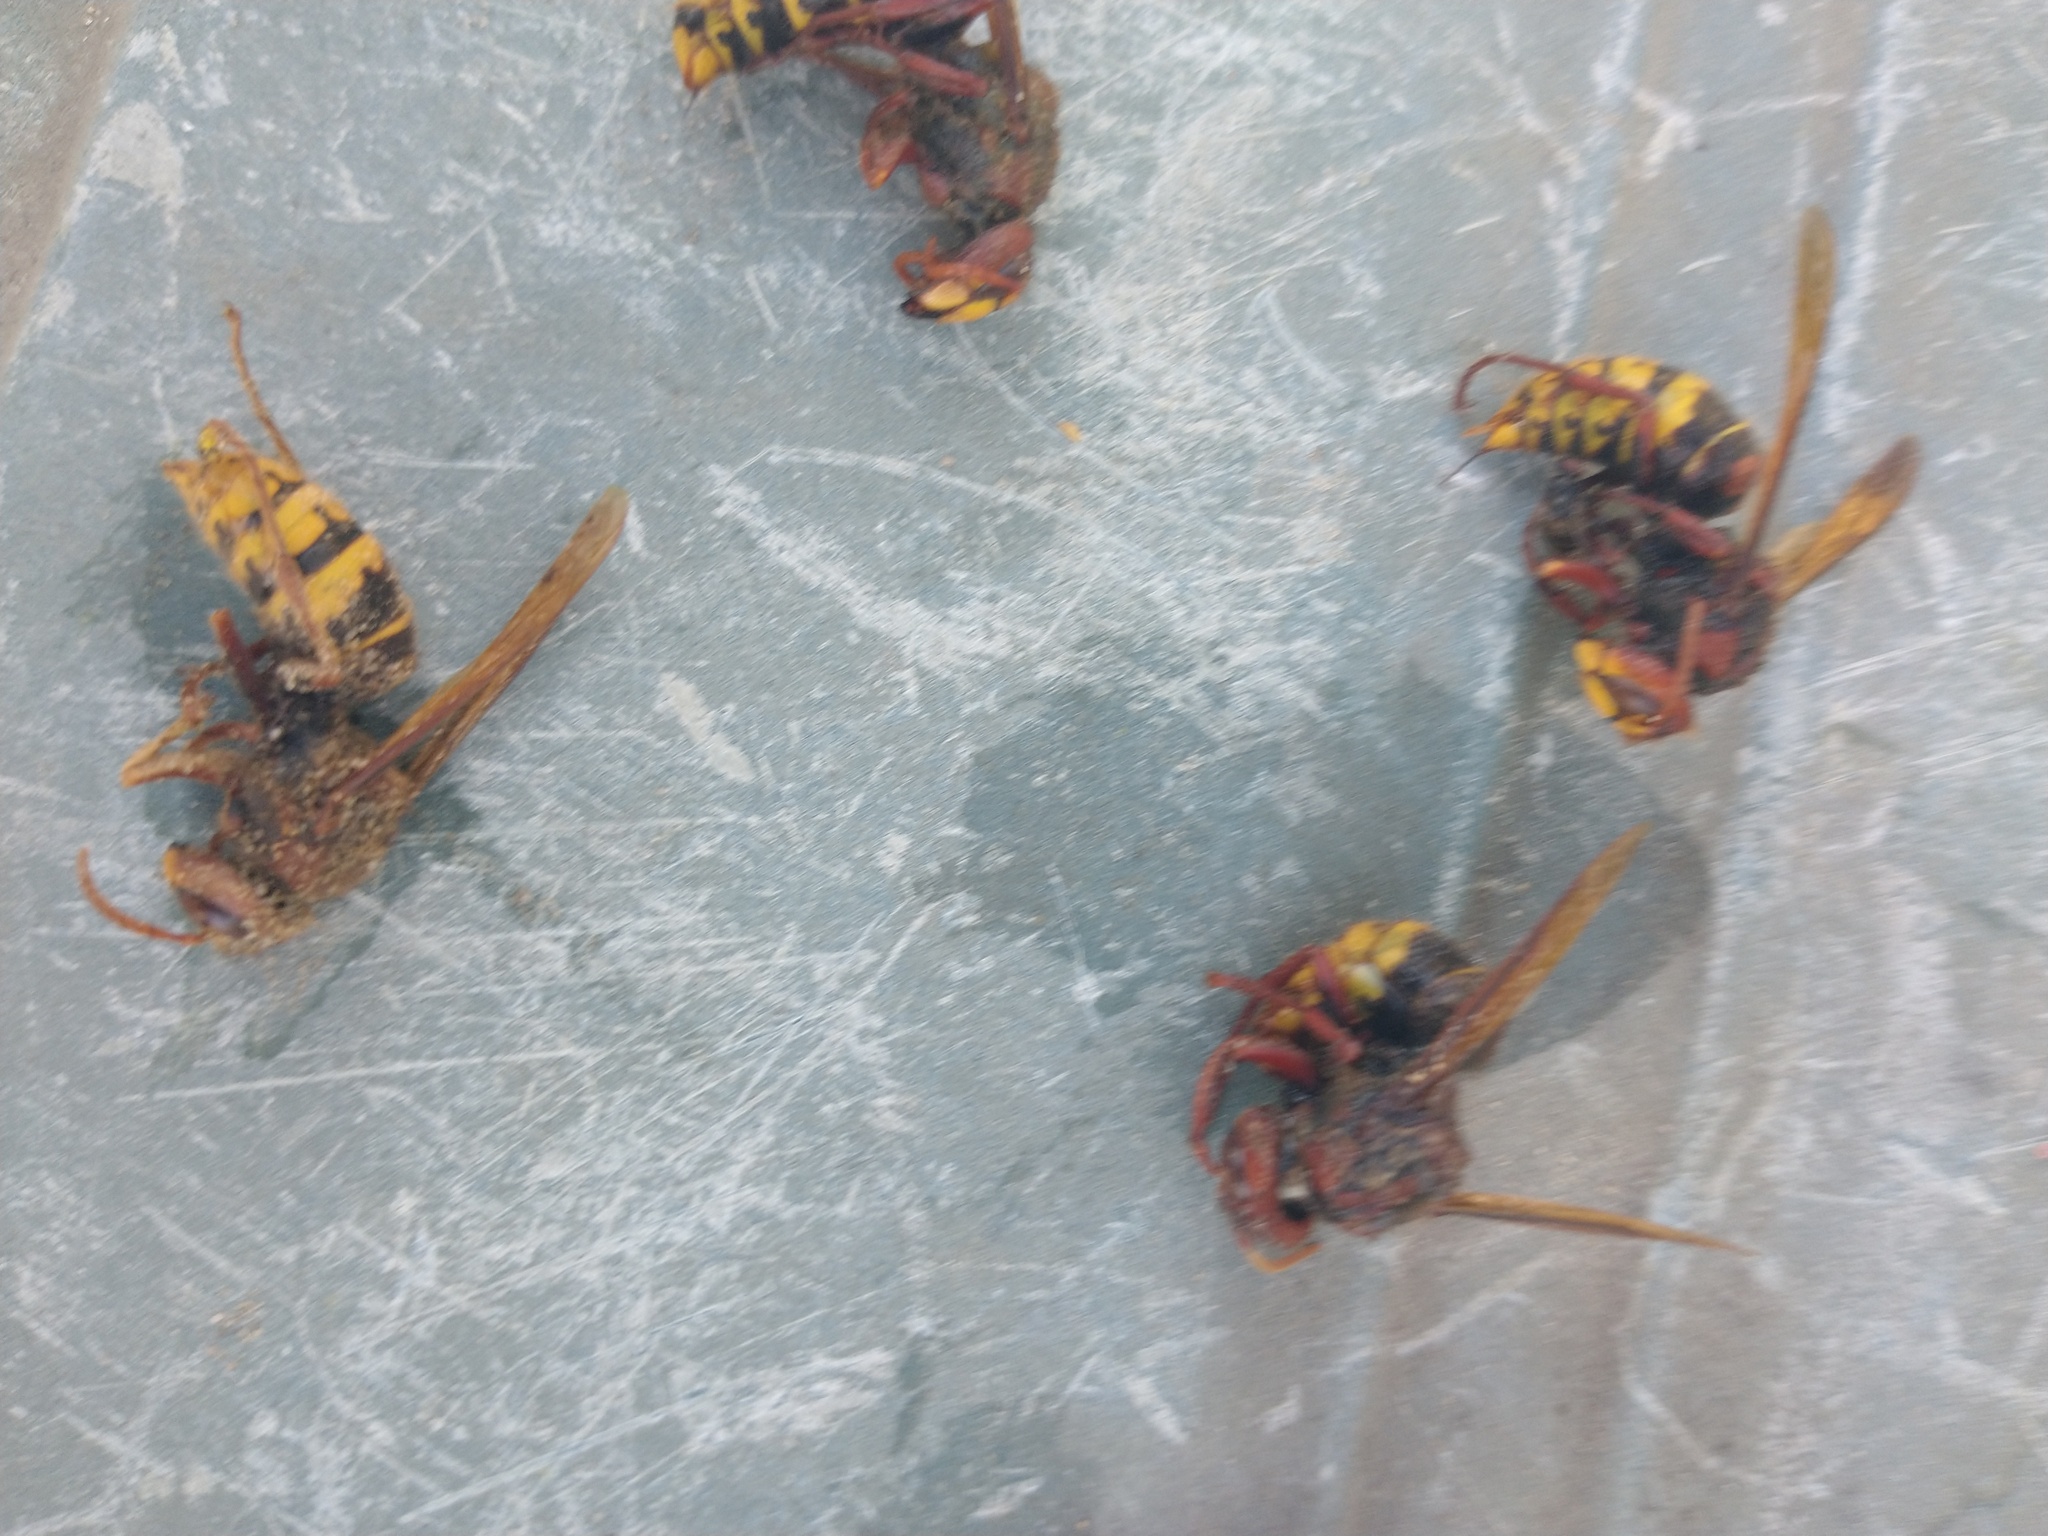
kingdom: Animalia
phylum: Arthropoda
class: Insecta
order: Hymenoptera
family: Vespidae
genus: Vespa
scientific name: Vespa crabro
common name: Hornet
